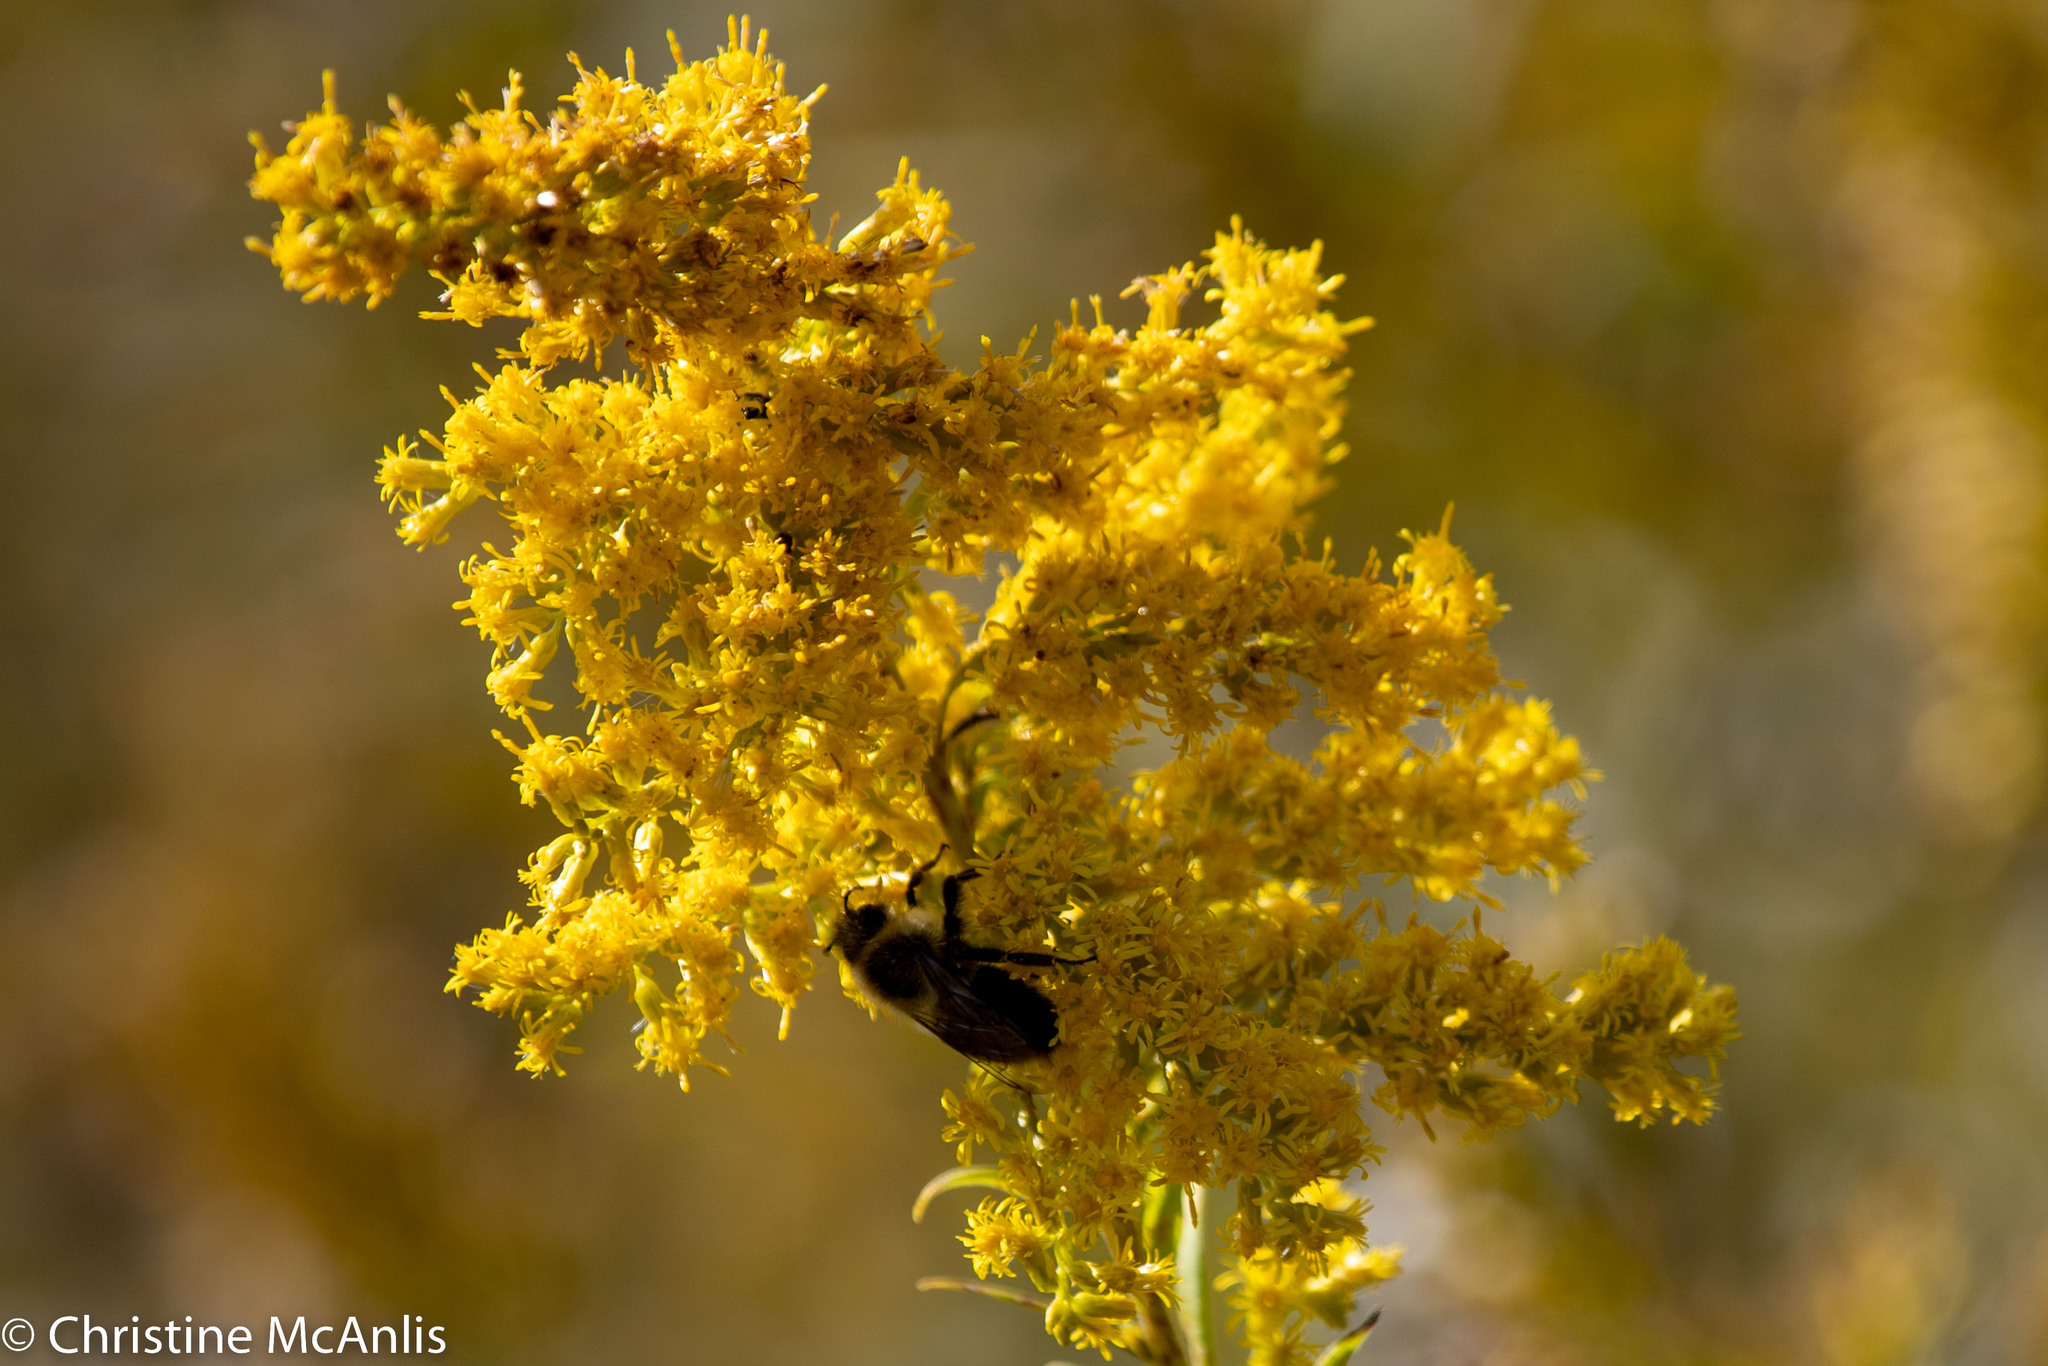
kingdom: Animalia
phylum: Arthropoda
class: Insecta
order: Hymenoptera
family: Apidae
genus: Bombus
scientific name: Bombus impatiens
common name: Common eastern bumble bee
